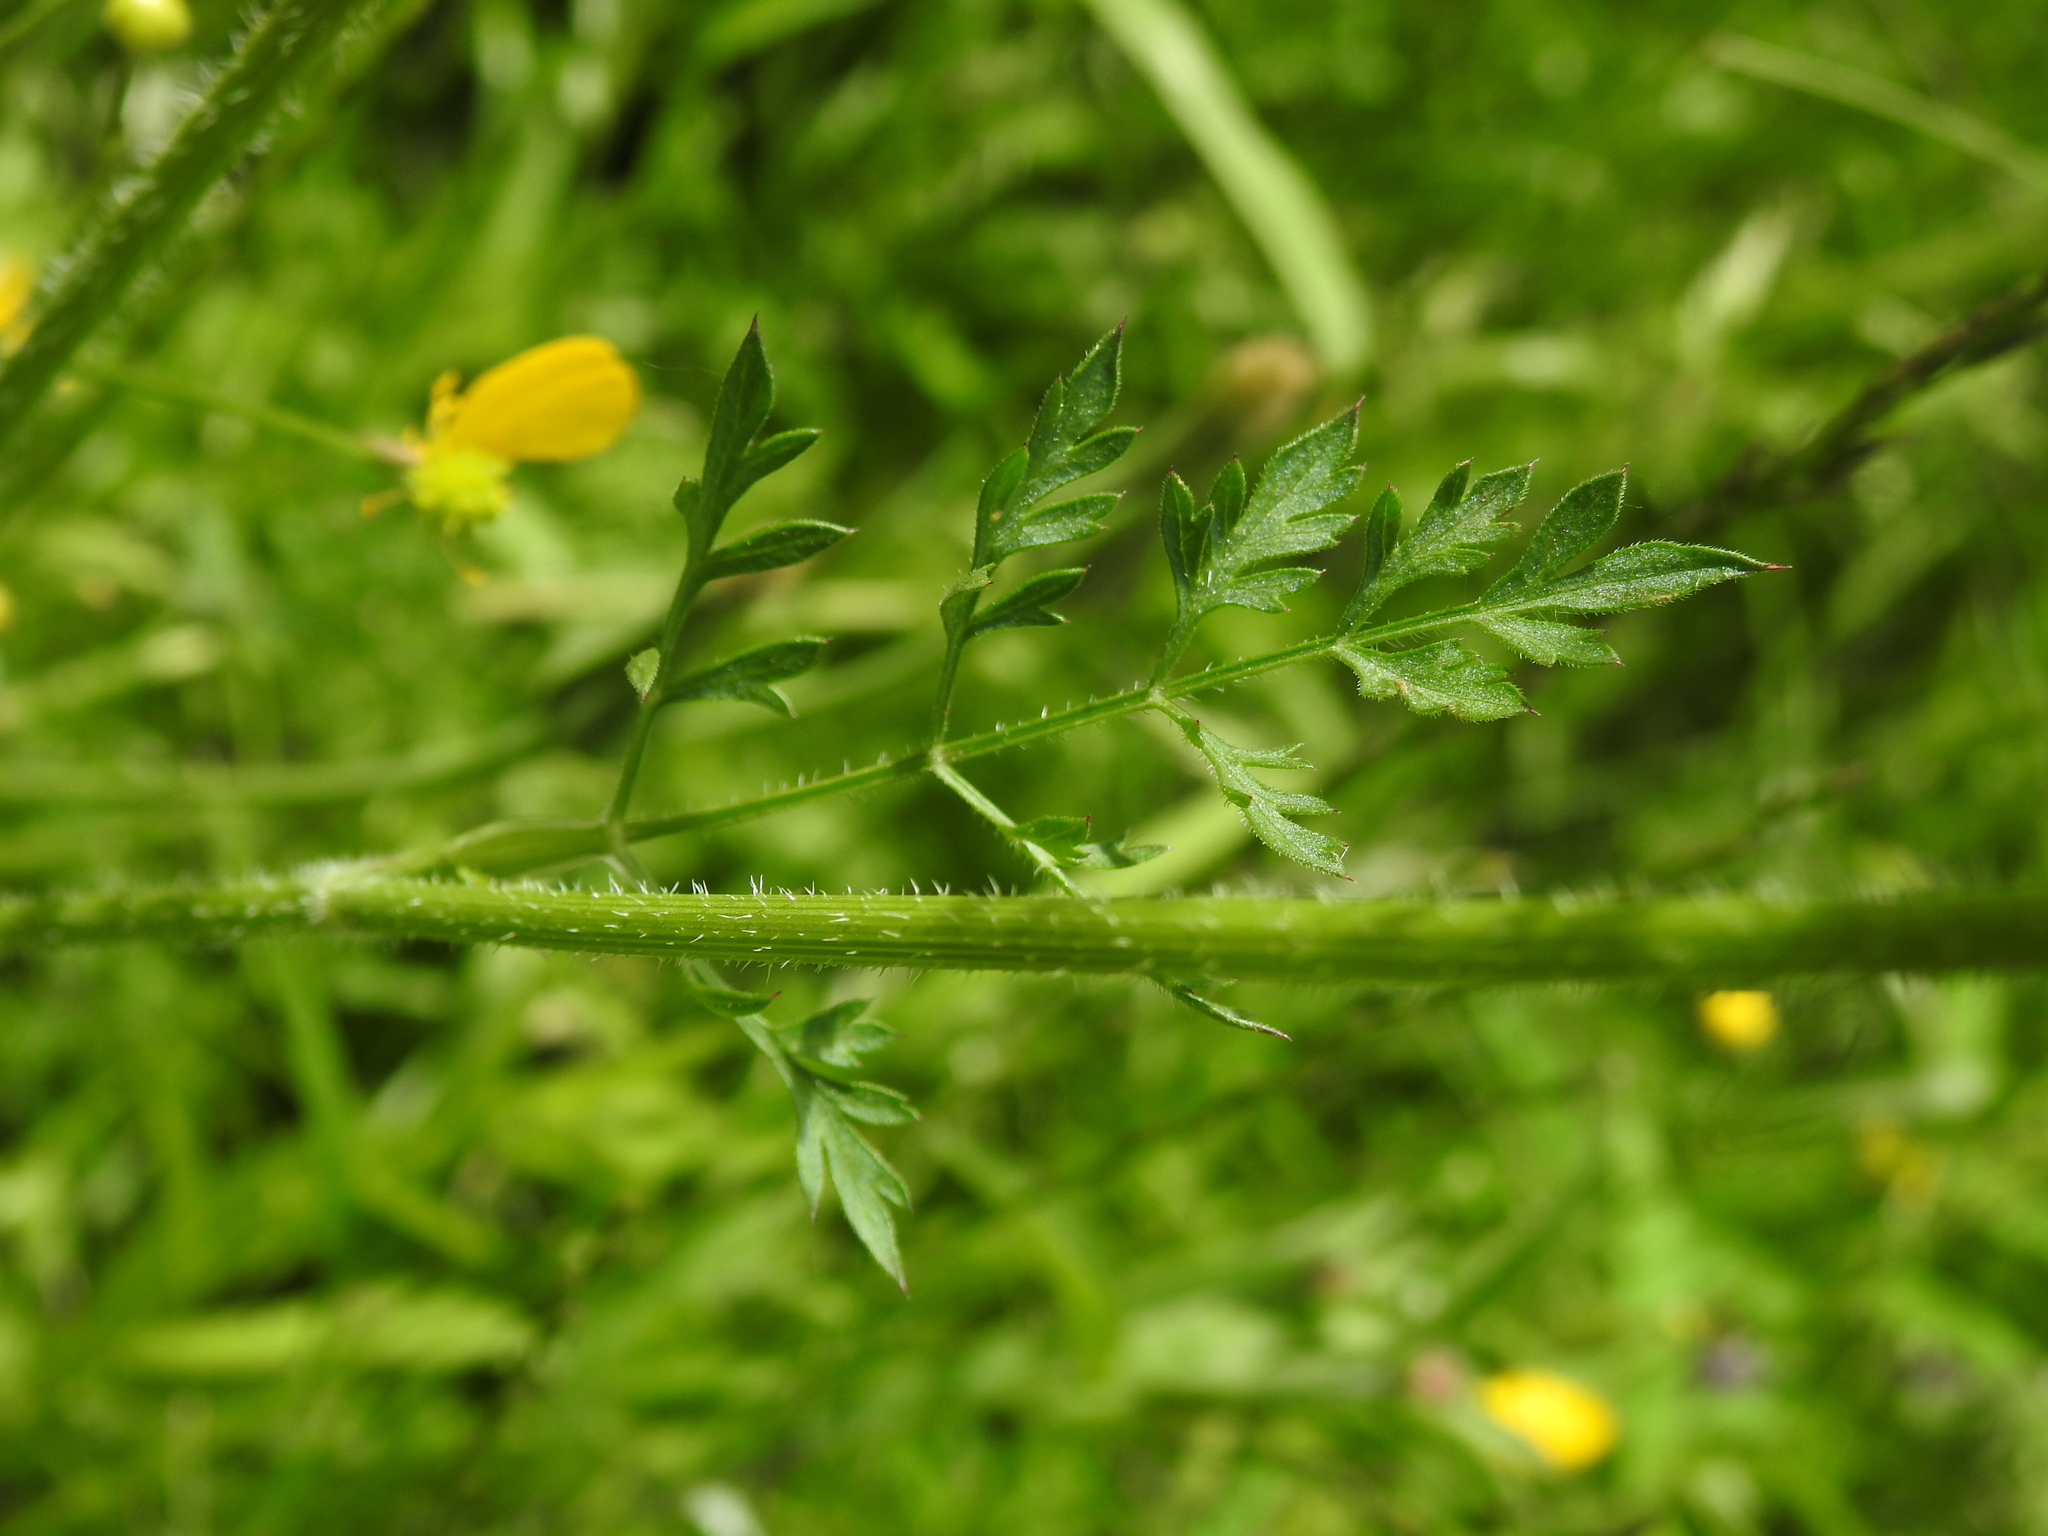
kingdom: Plantae
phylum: Tracheophyta
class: Magnoliopsida
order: Apiales
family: Apiaceae
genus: Daucus
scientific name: Daucus carota
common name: Wild carrot
